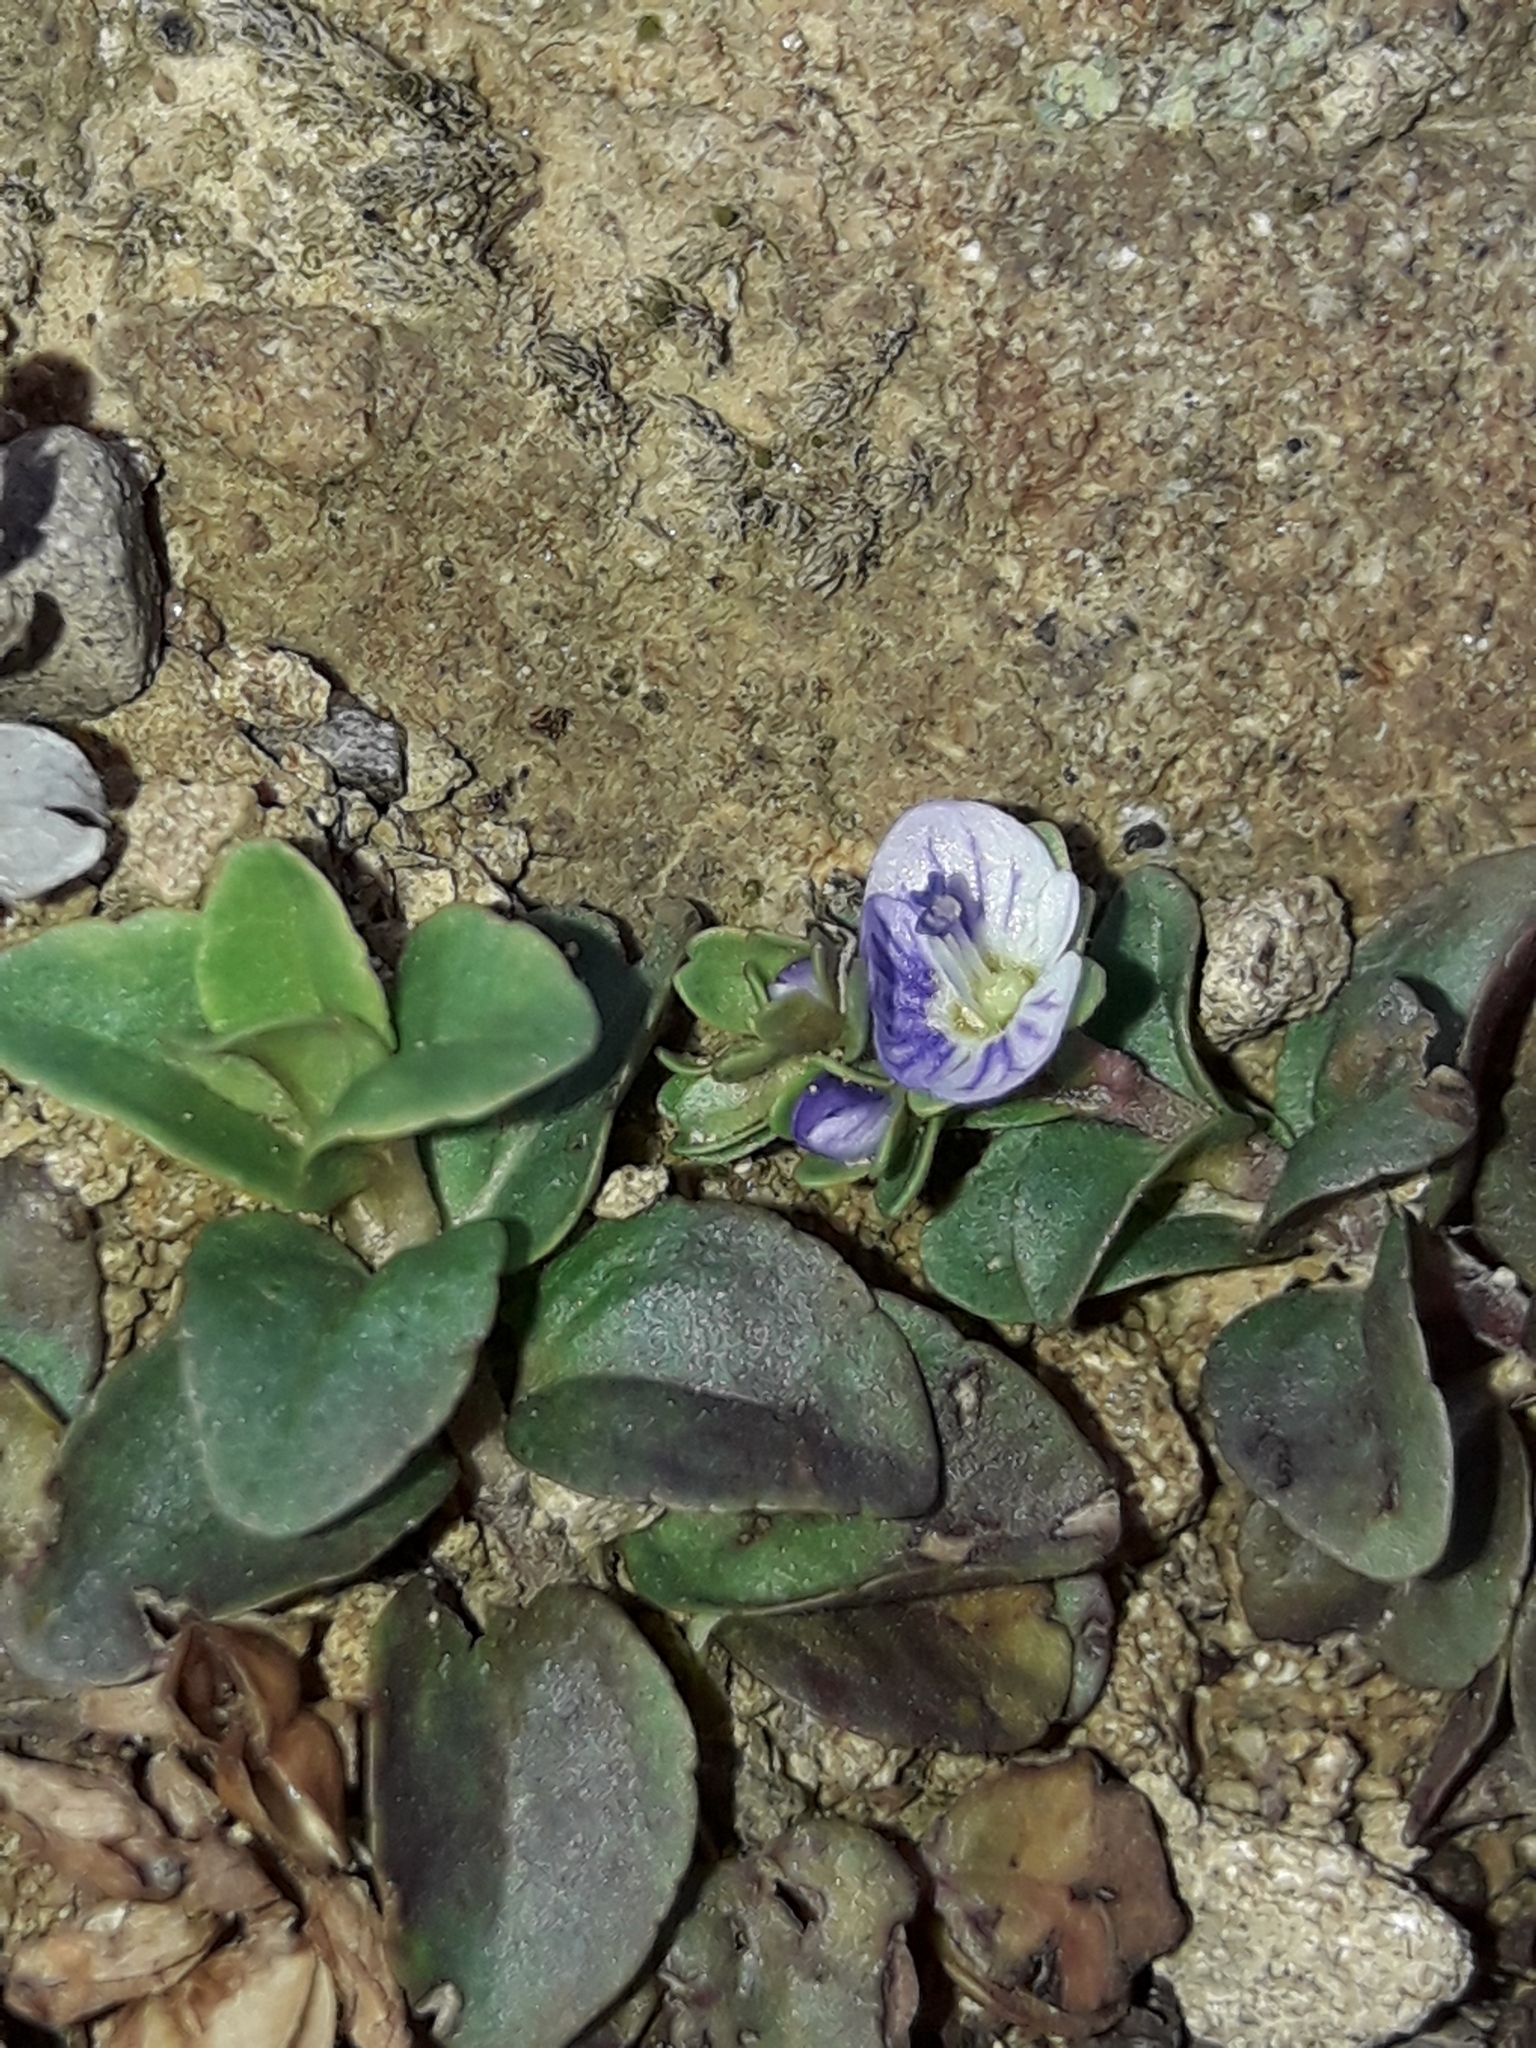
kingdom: Plantae
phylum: Tracheophyta
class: Magnoliopsida
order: Lamiales
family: Plantaginaceae
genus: Veronica
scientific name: Veronica serpyllifolia
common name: Thyme-leaved speedwell
